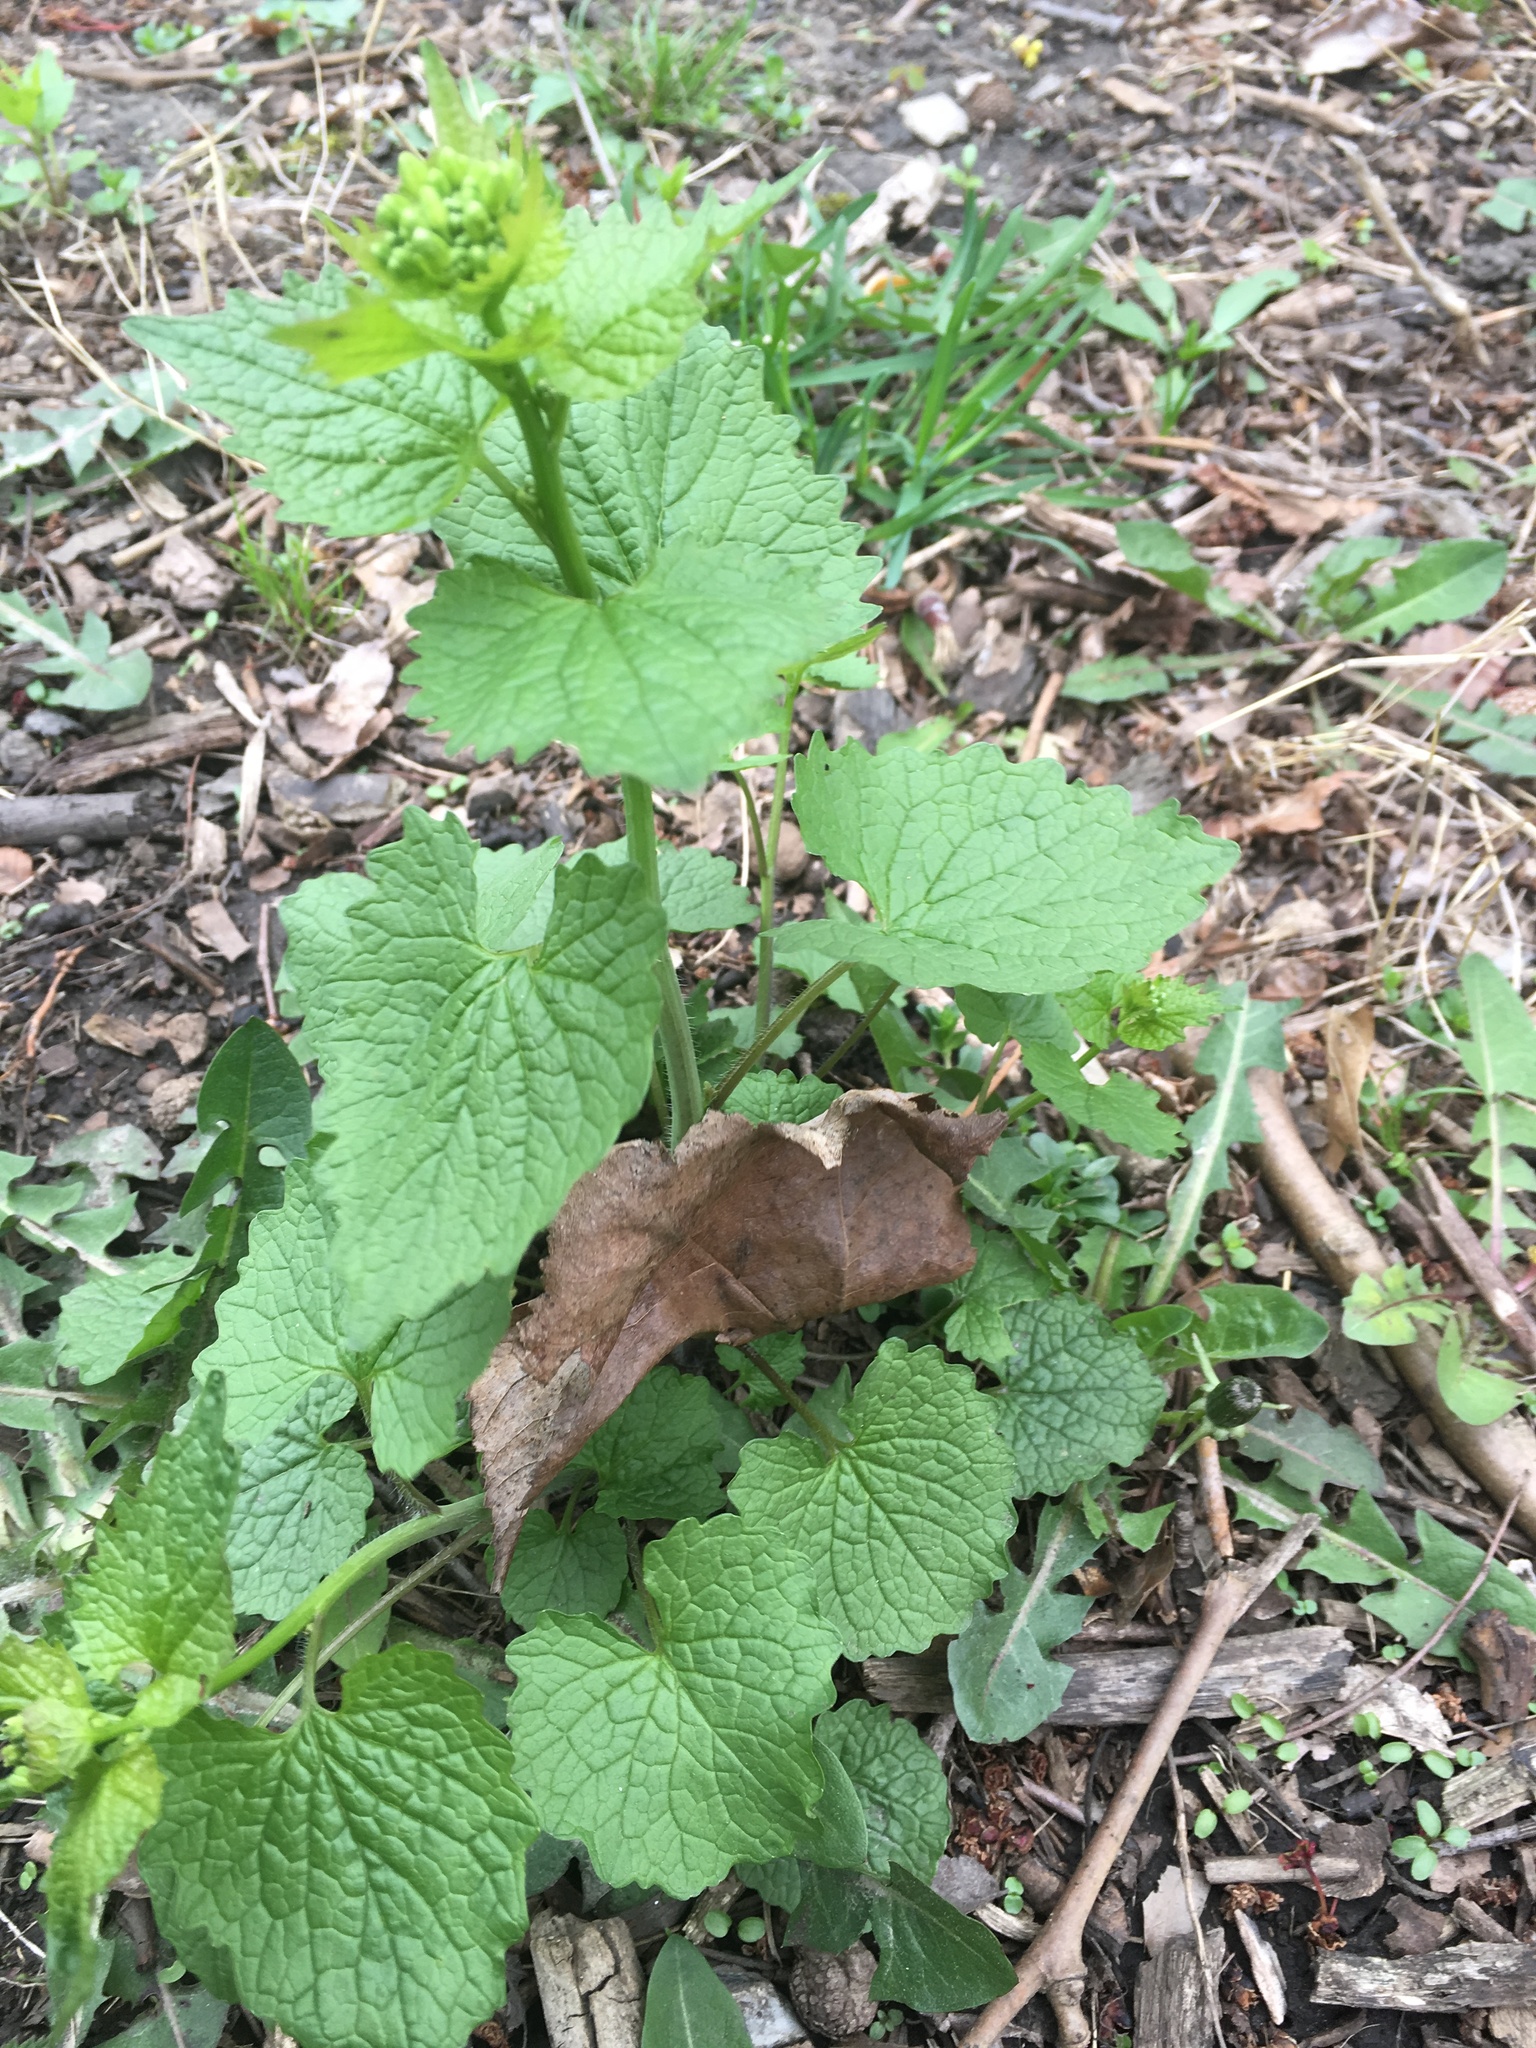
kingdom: Plantae
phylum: Tracheophyta
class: Magnoliopsida
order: Brassicales
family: Brassicaceae
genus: Alliaria
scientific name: Alliaria petiolata
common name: Garlic mustard
